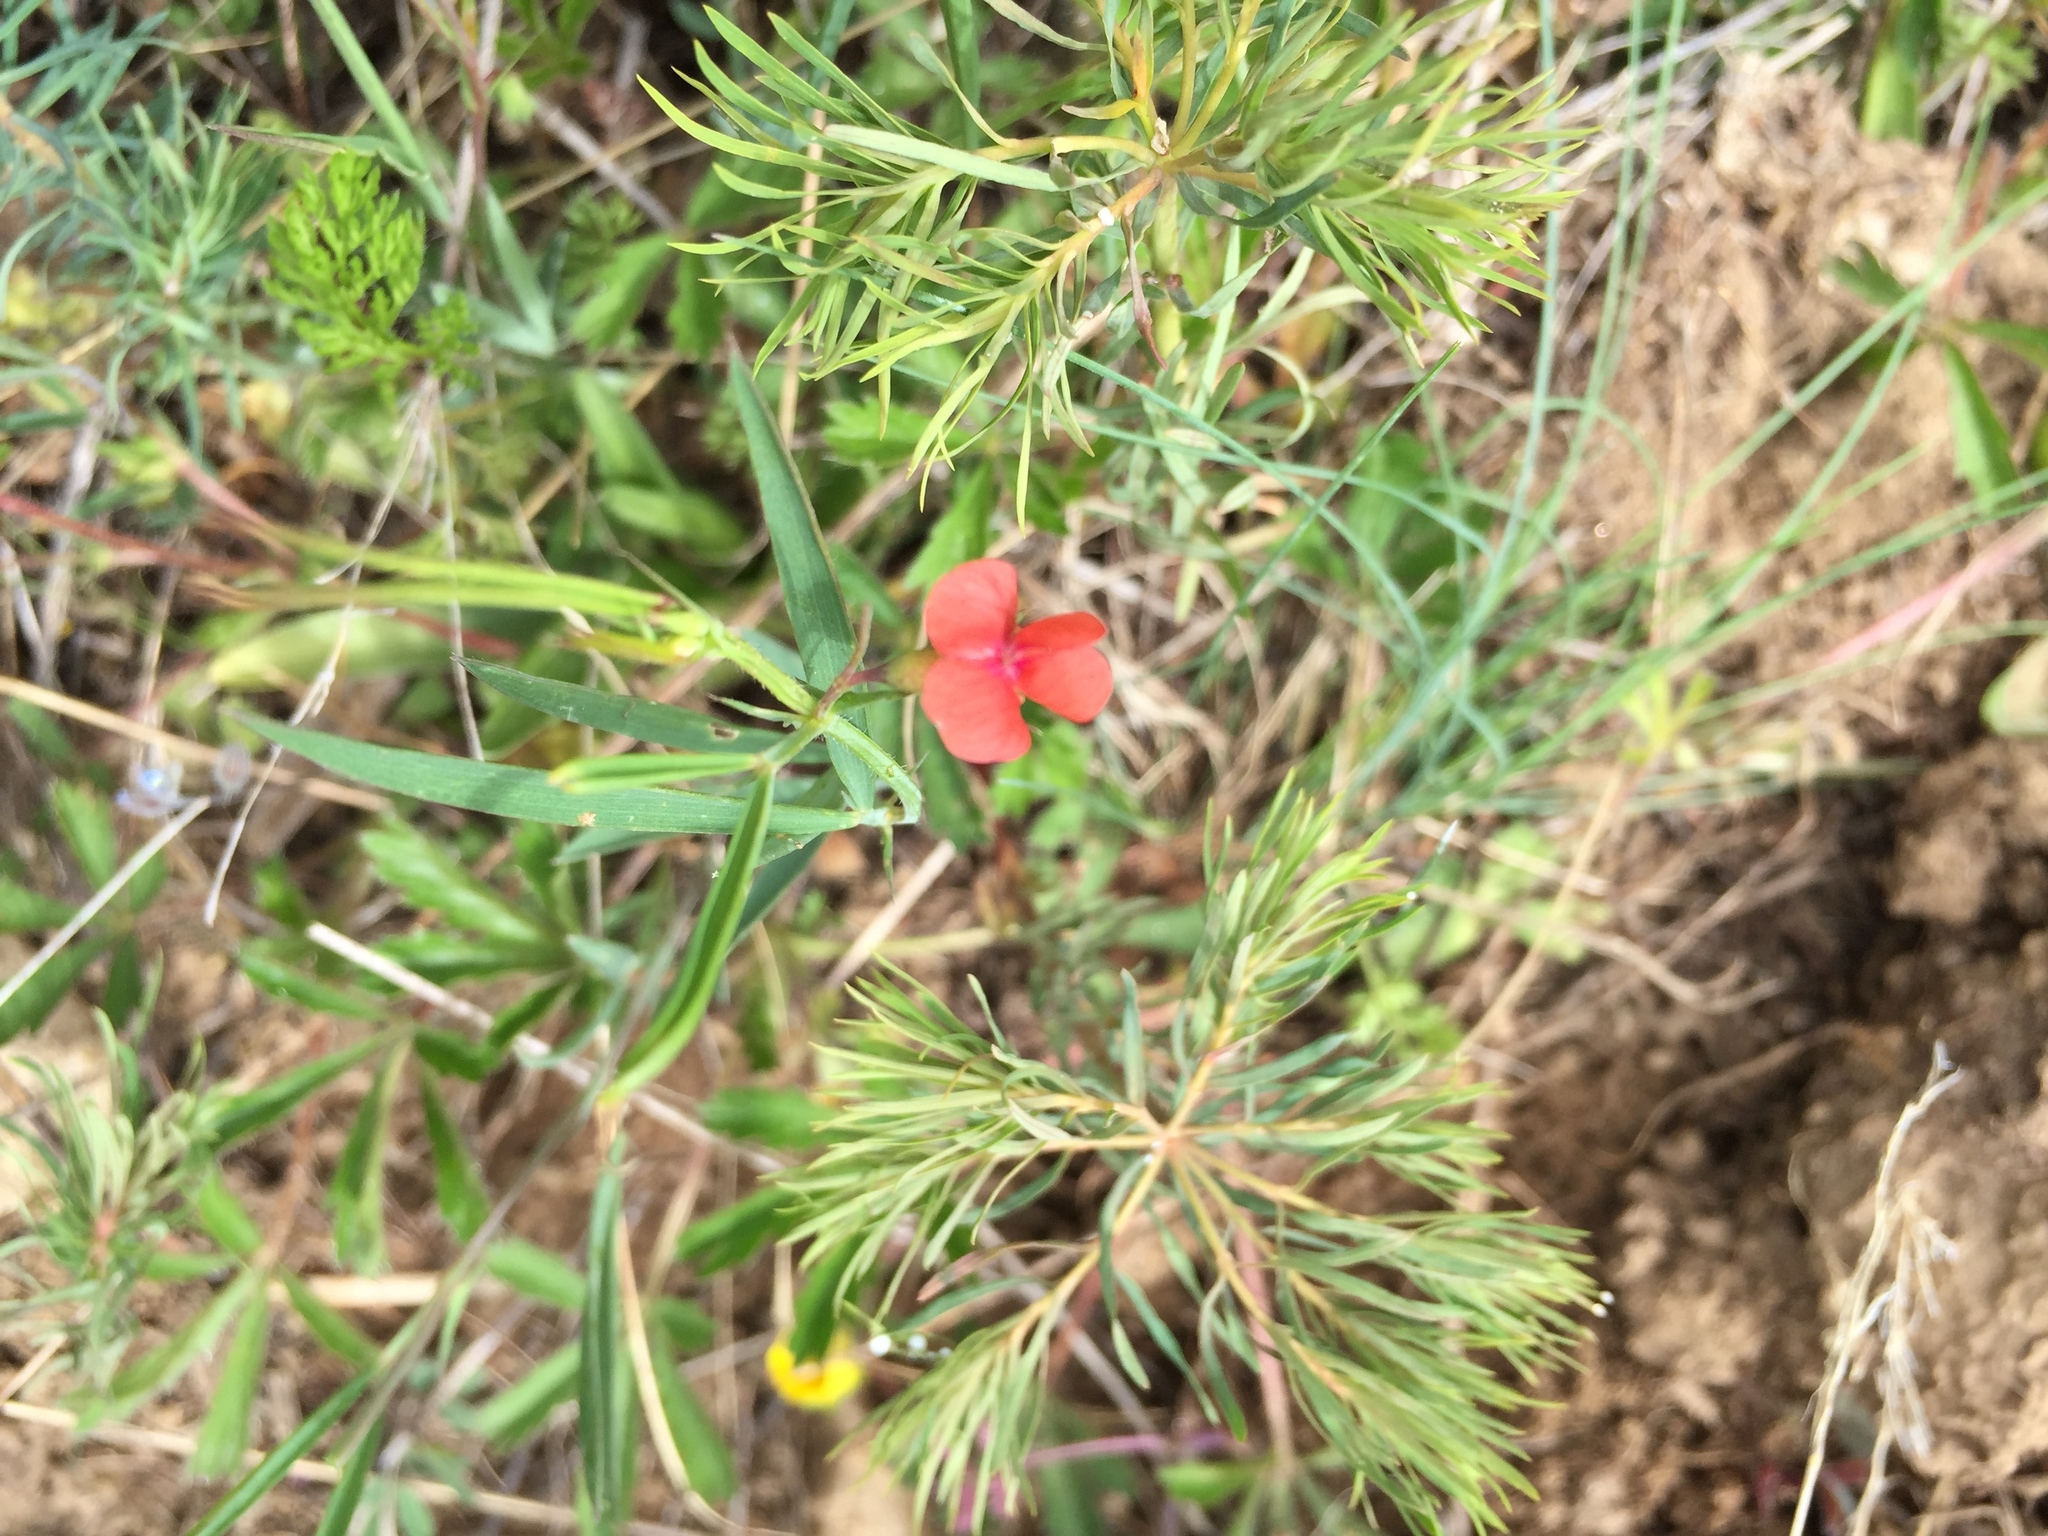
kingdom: Plantae
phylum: Tracheophyta
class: Magnoliopsida
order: Fabales
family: Fabaceae
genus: Lathyrus
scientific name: Lathyrus sphaericus
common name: Grass pea
